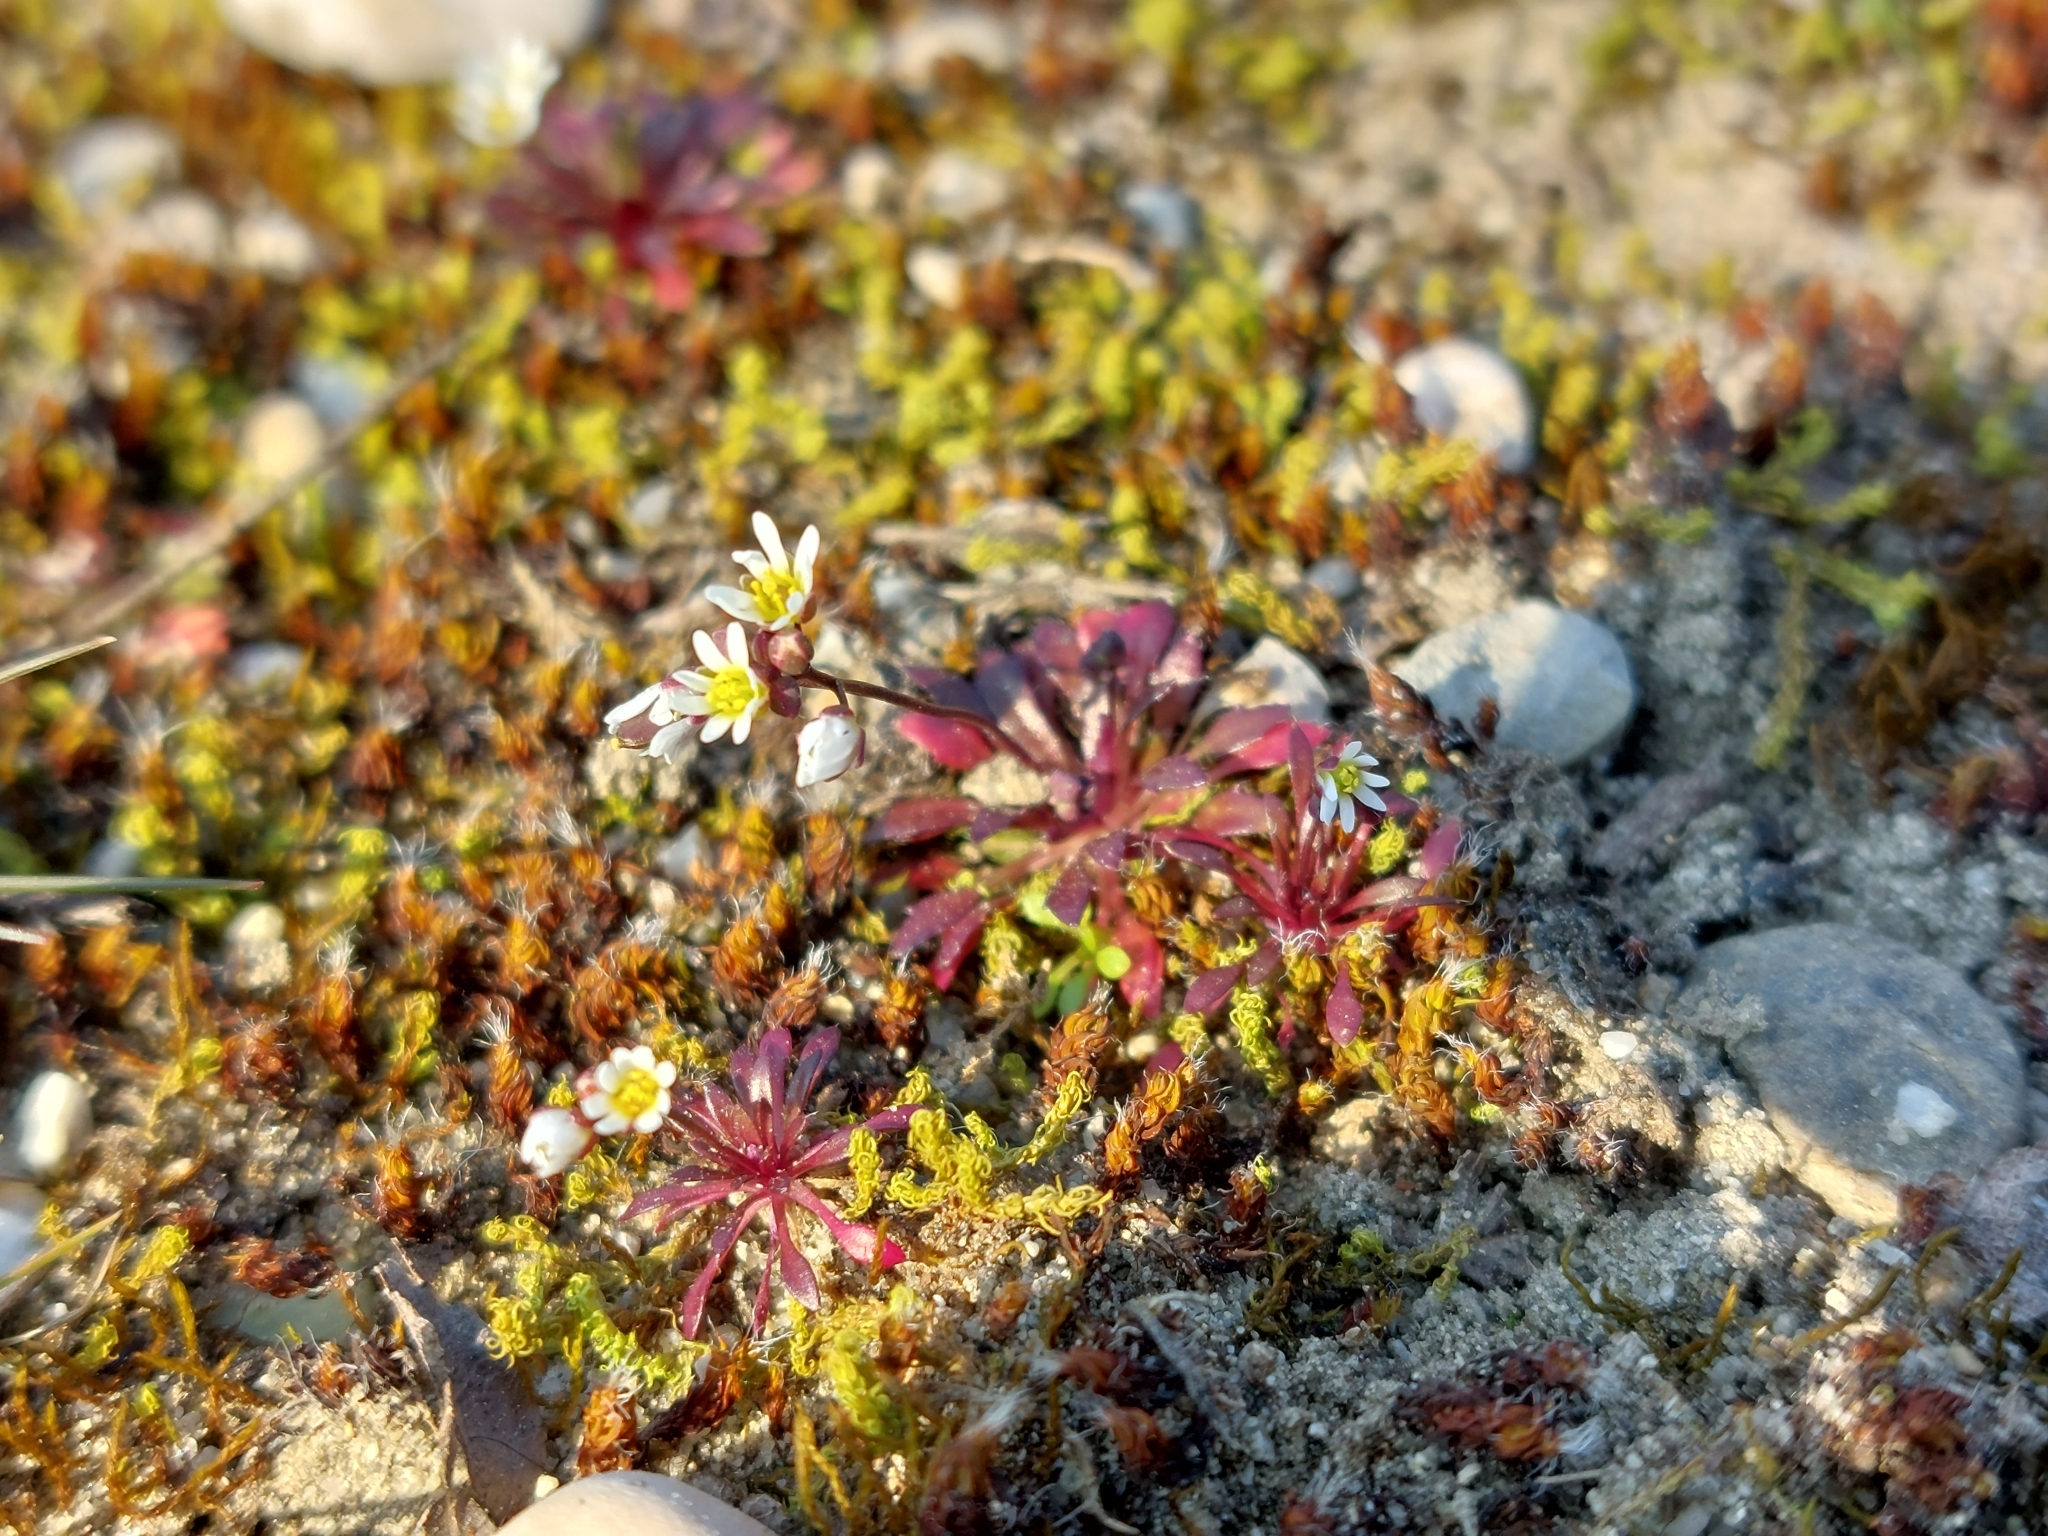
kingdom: Plantae
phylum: Tracheophyta
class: Magnoliopsida
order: Brassicales
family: Brassicaceae
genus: Draba
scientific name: Draba verna
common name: Spring draba
